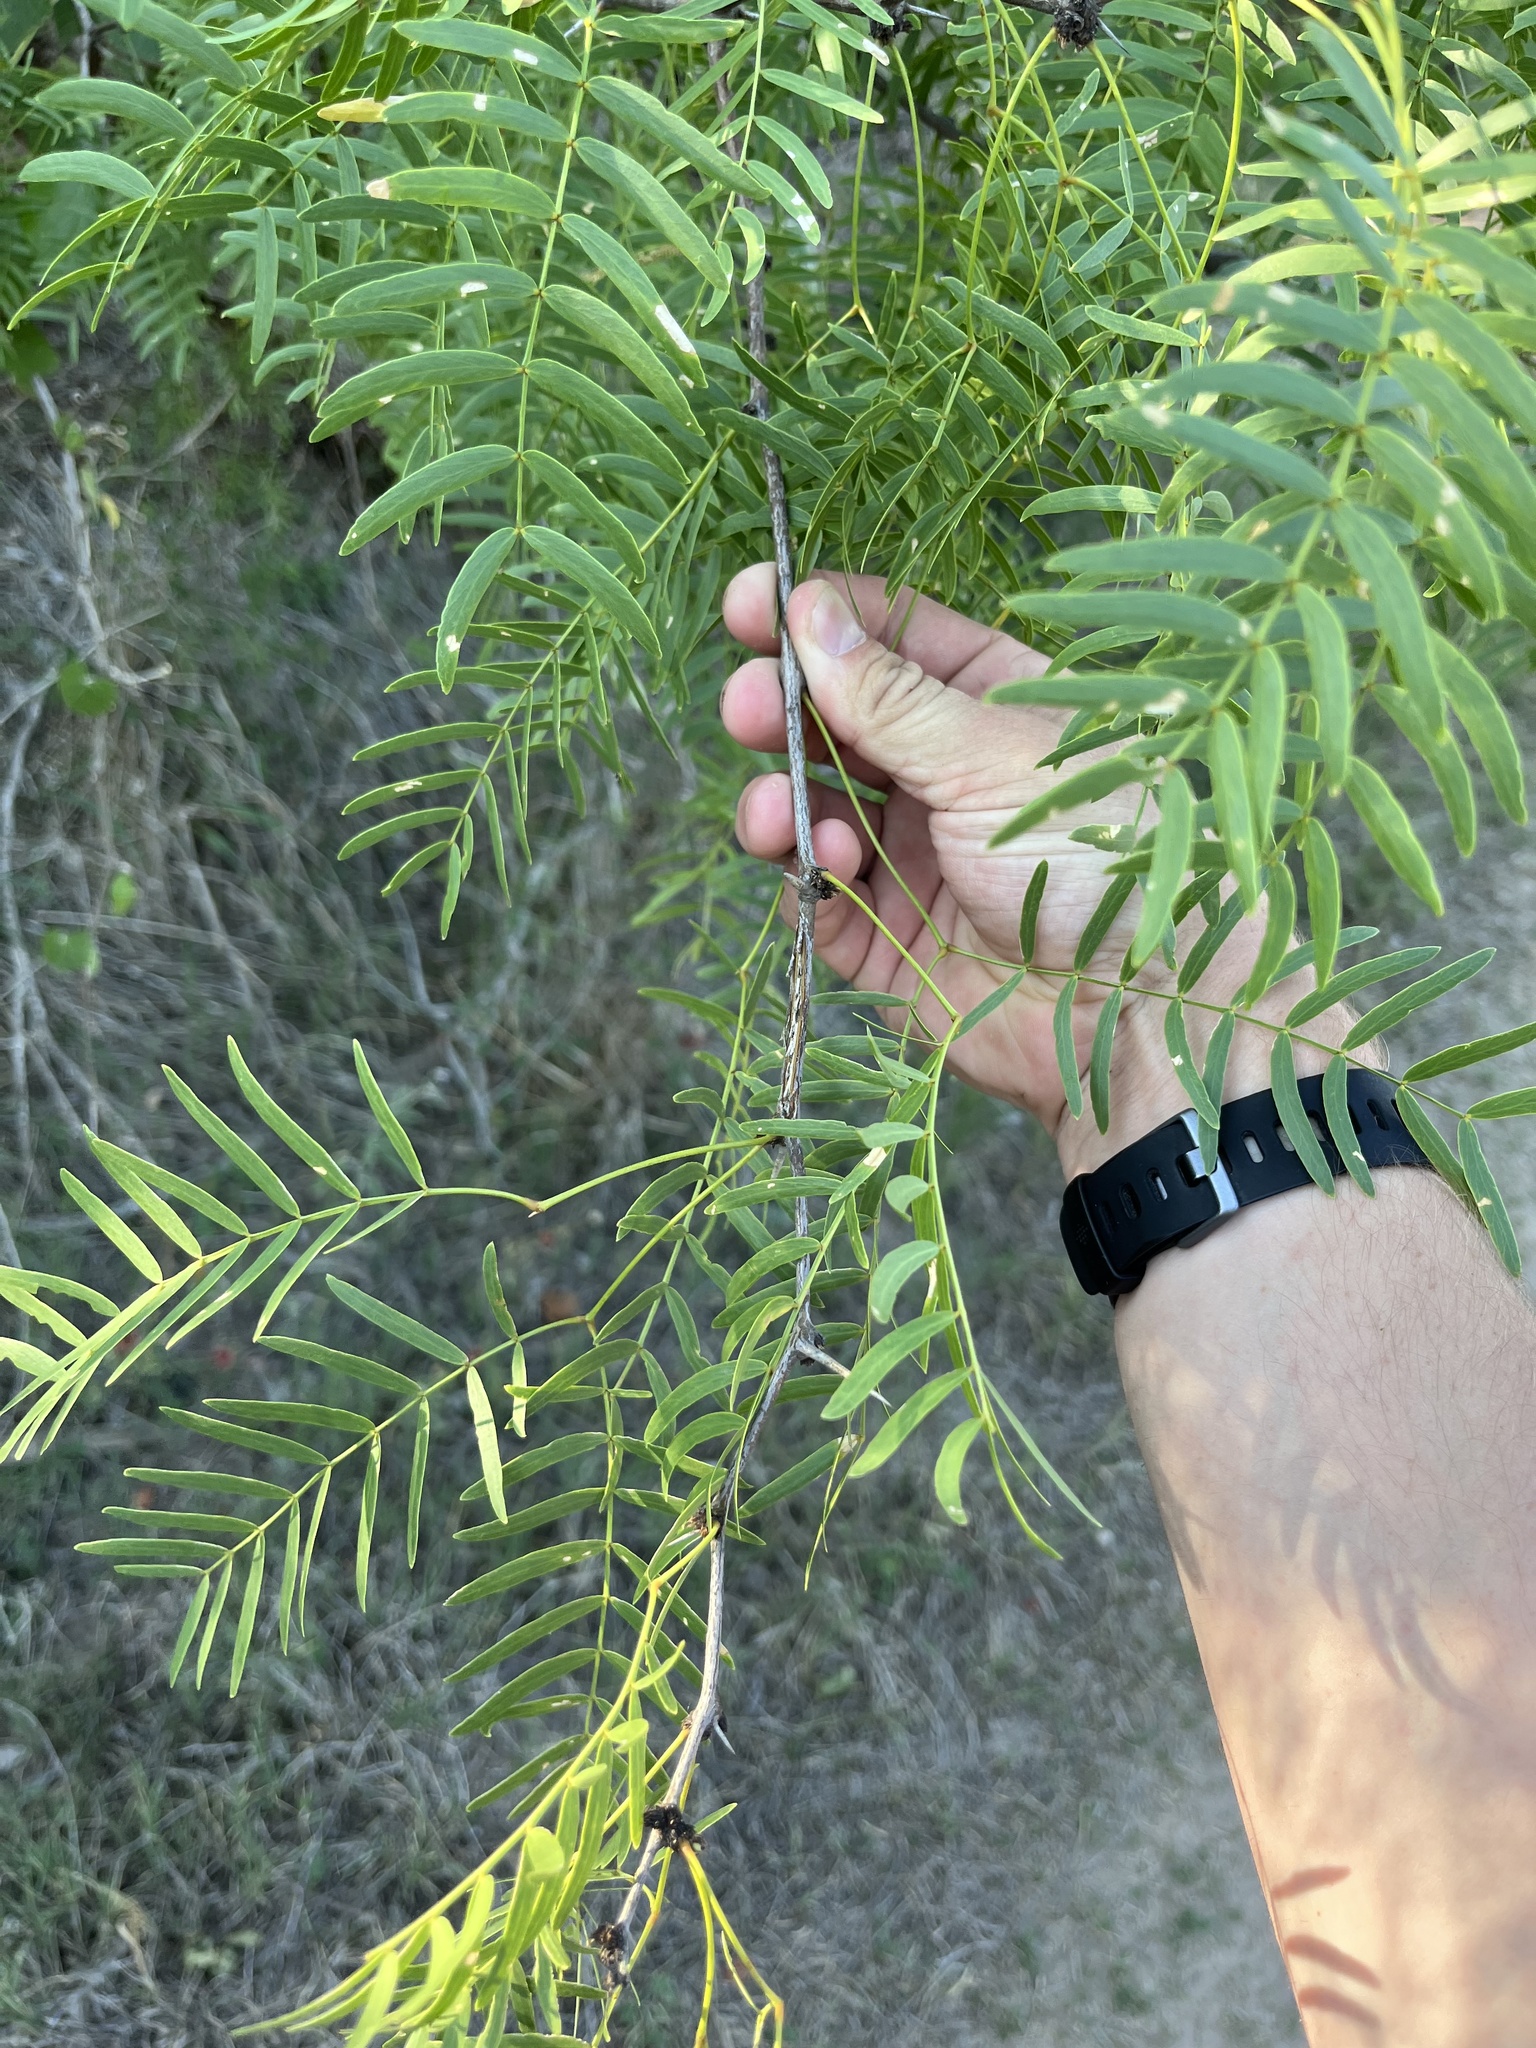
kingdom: Plantae
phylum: Tracheophyta
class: Magnoliopsida
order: Fabales
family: Fabaceae
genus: Prosopis
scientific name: Prosopis glandulosa
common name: Honey mesquite
